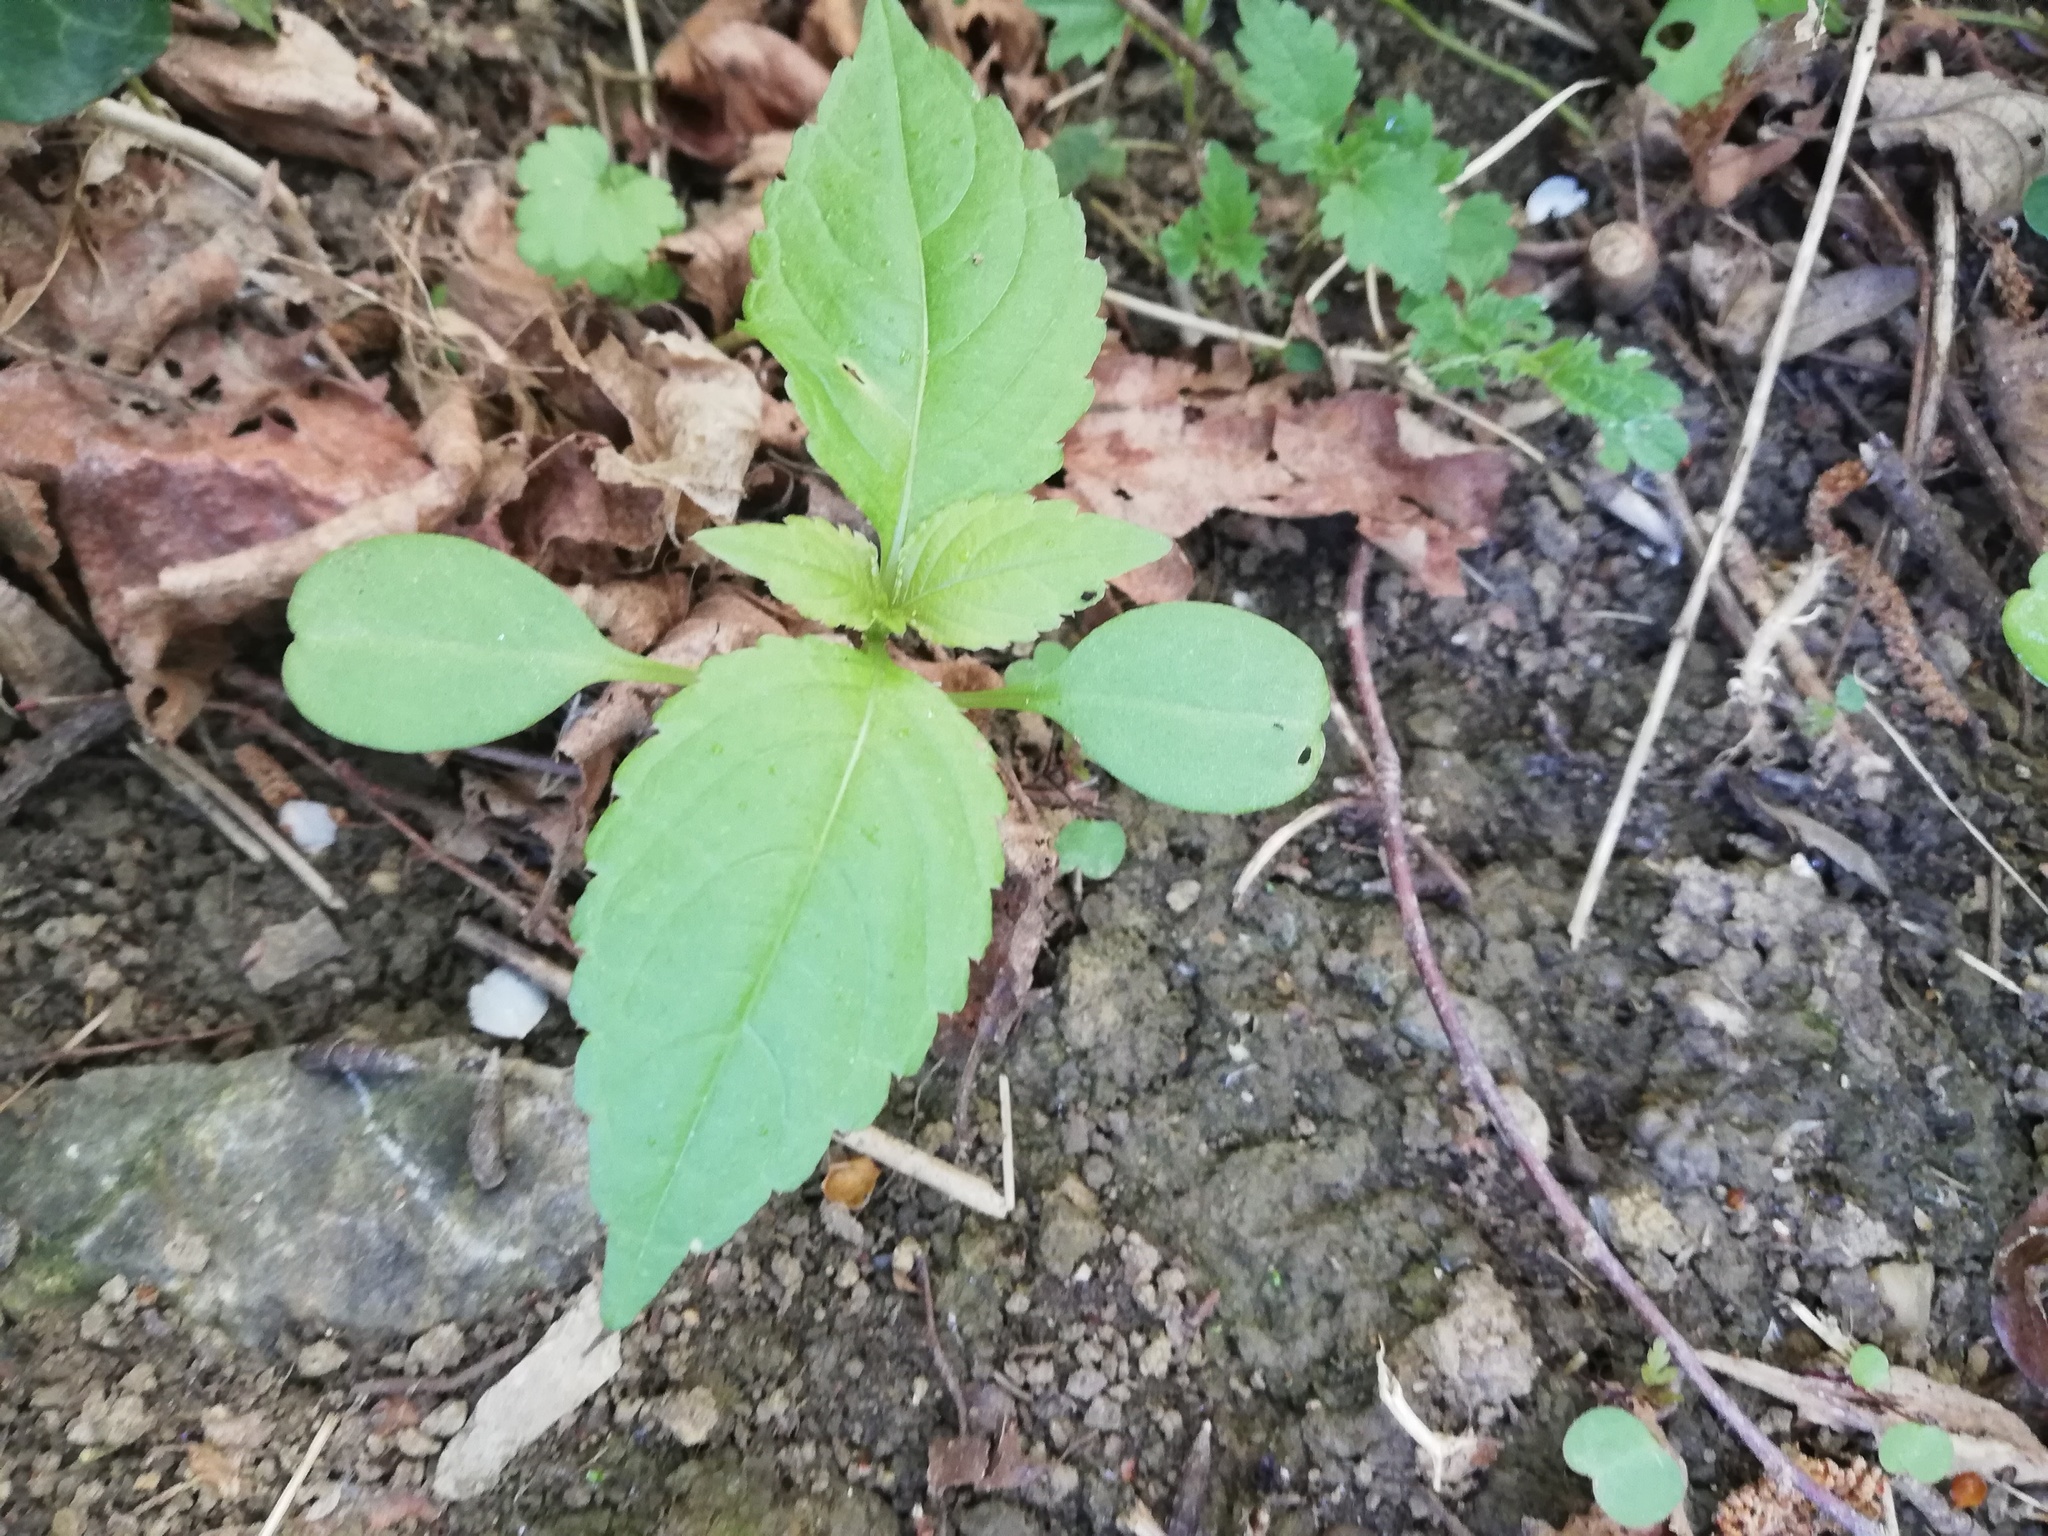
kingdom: Plantae
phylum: Tracheophyta
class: Magnoliopsida
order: Ericales
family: Balsaminaceae
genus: Impatiens
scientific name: Impatiens parviflora
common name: Small balsam
